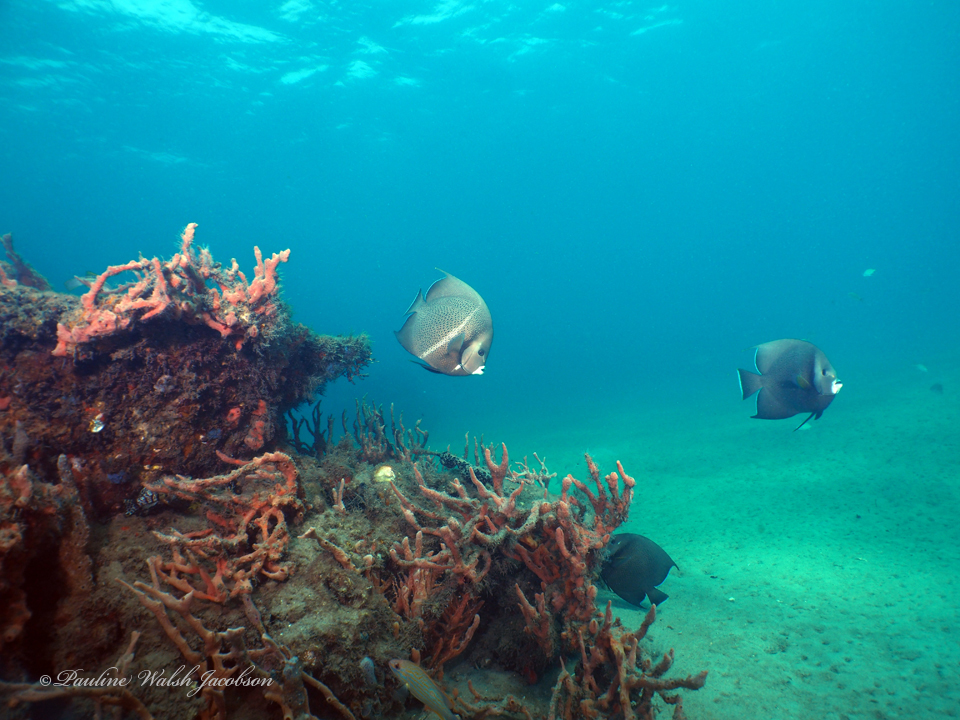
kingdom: Animalia
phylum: Chordata
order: Perciformes
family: Pomacanthidae
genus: Pomacanthus
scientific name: Pomacanthus arcuatus
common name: Gray angelfish
